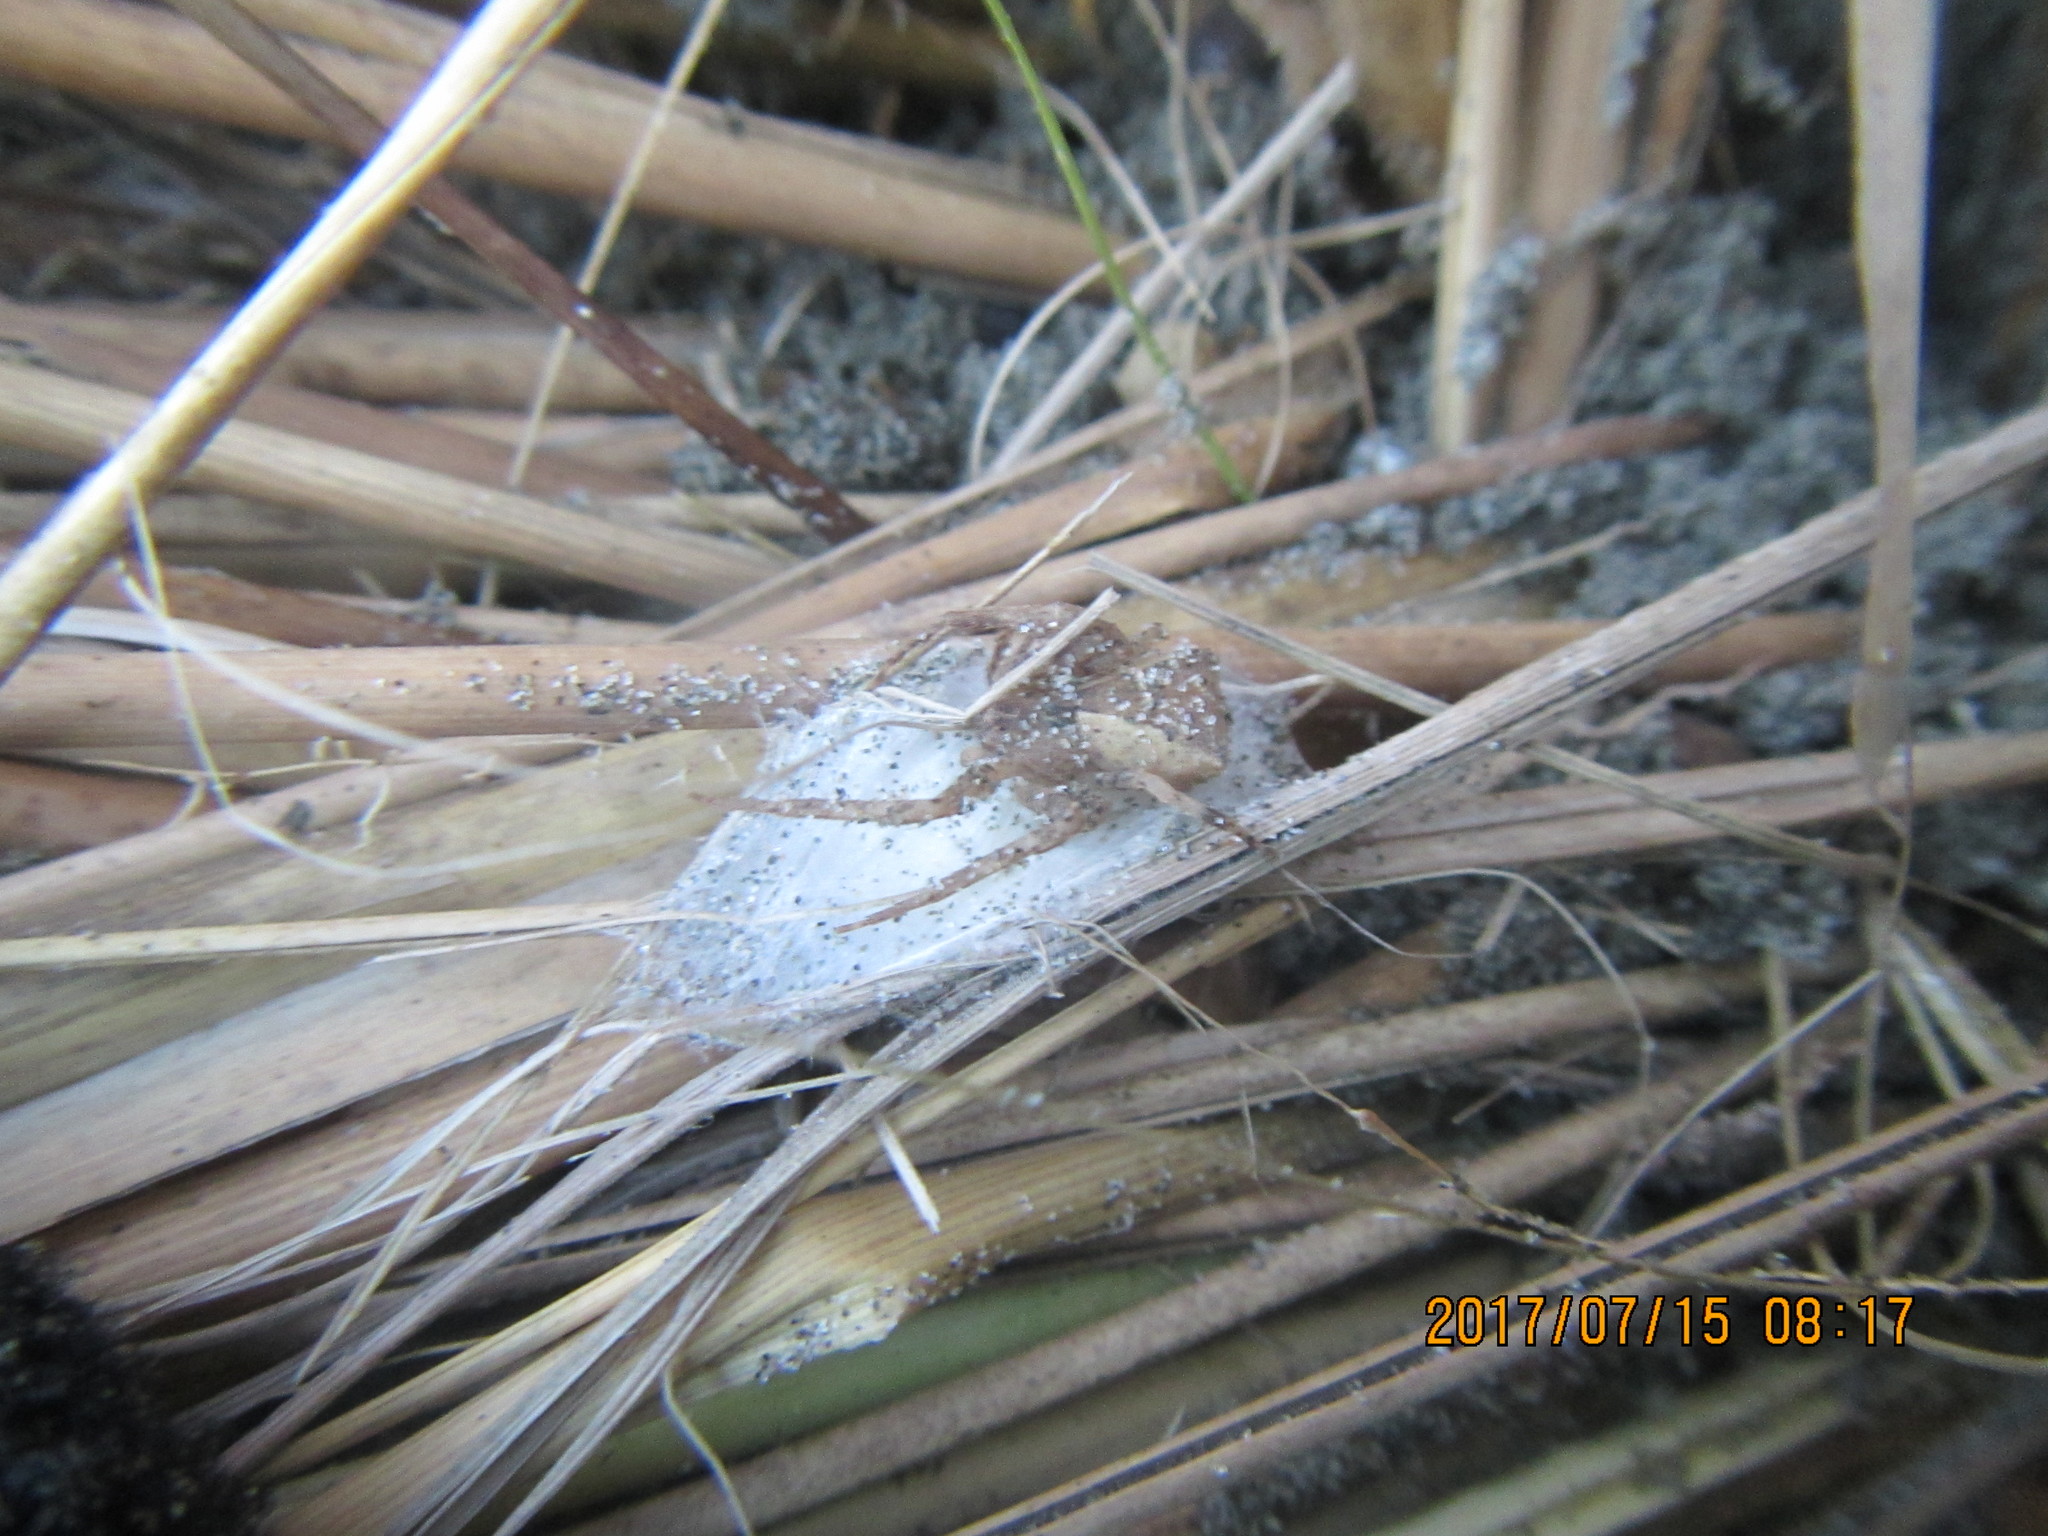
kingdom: Animalia
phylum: Arthropoda
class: Arachnida
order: Araneae
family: Mimetidae
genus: Australomimetus
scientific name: Australomimetus hartleyensis
